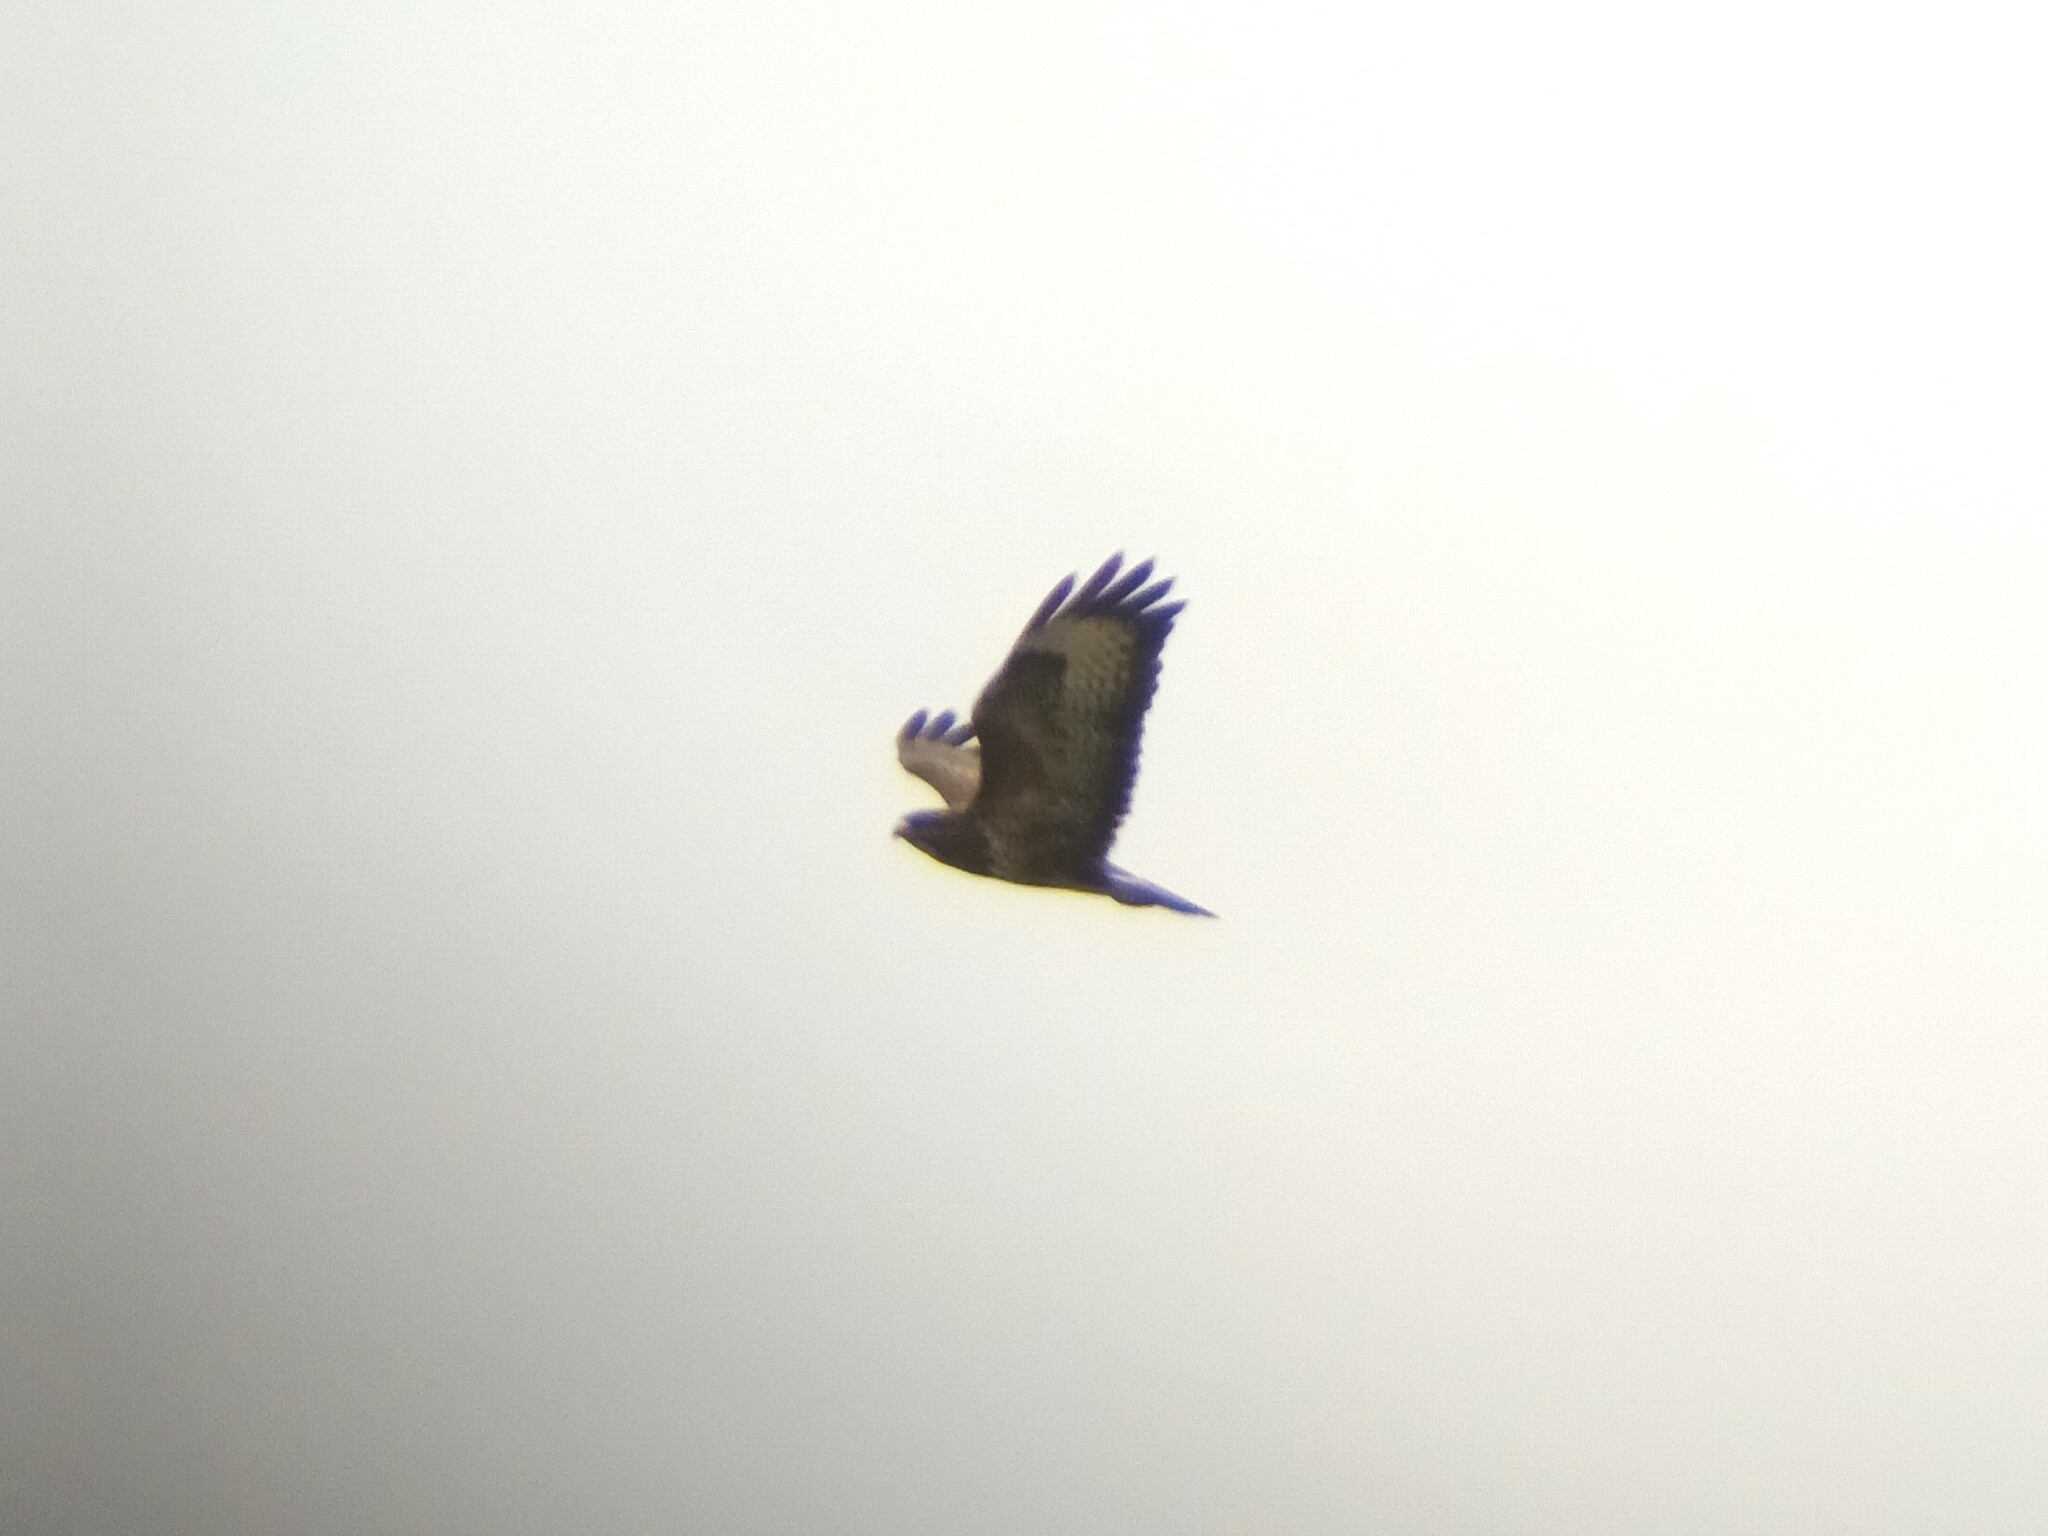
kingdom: Animalia
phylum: Chordata
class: Aves
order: Accipitriformes
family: Accipitridae
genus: Buteo
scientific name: Buteo buteo
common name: Common buzzard
